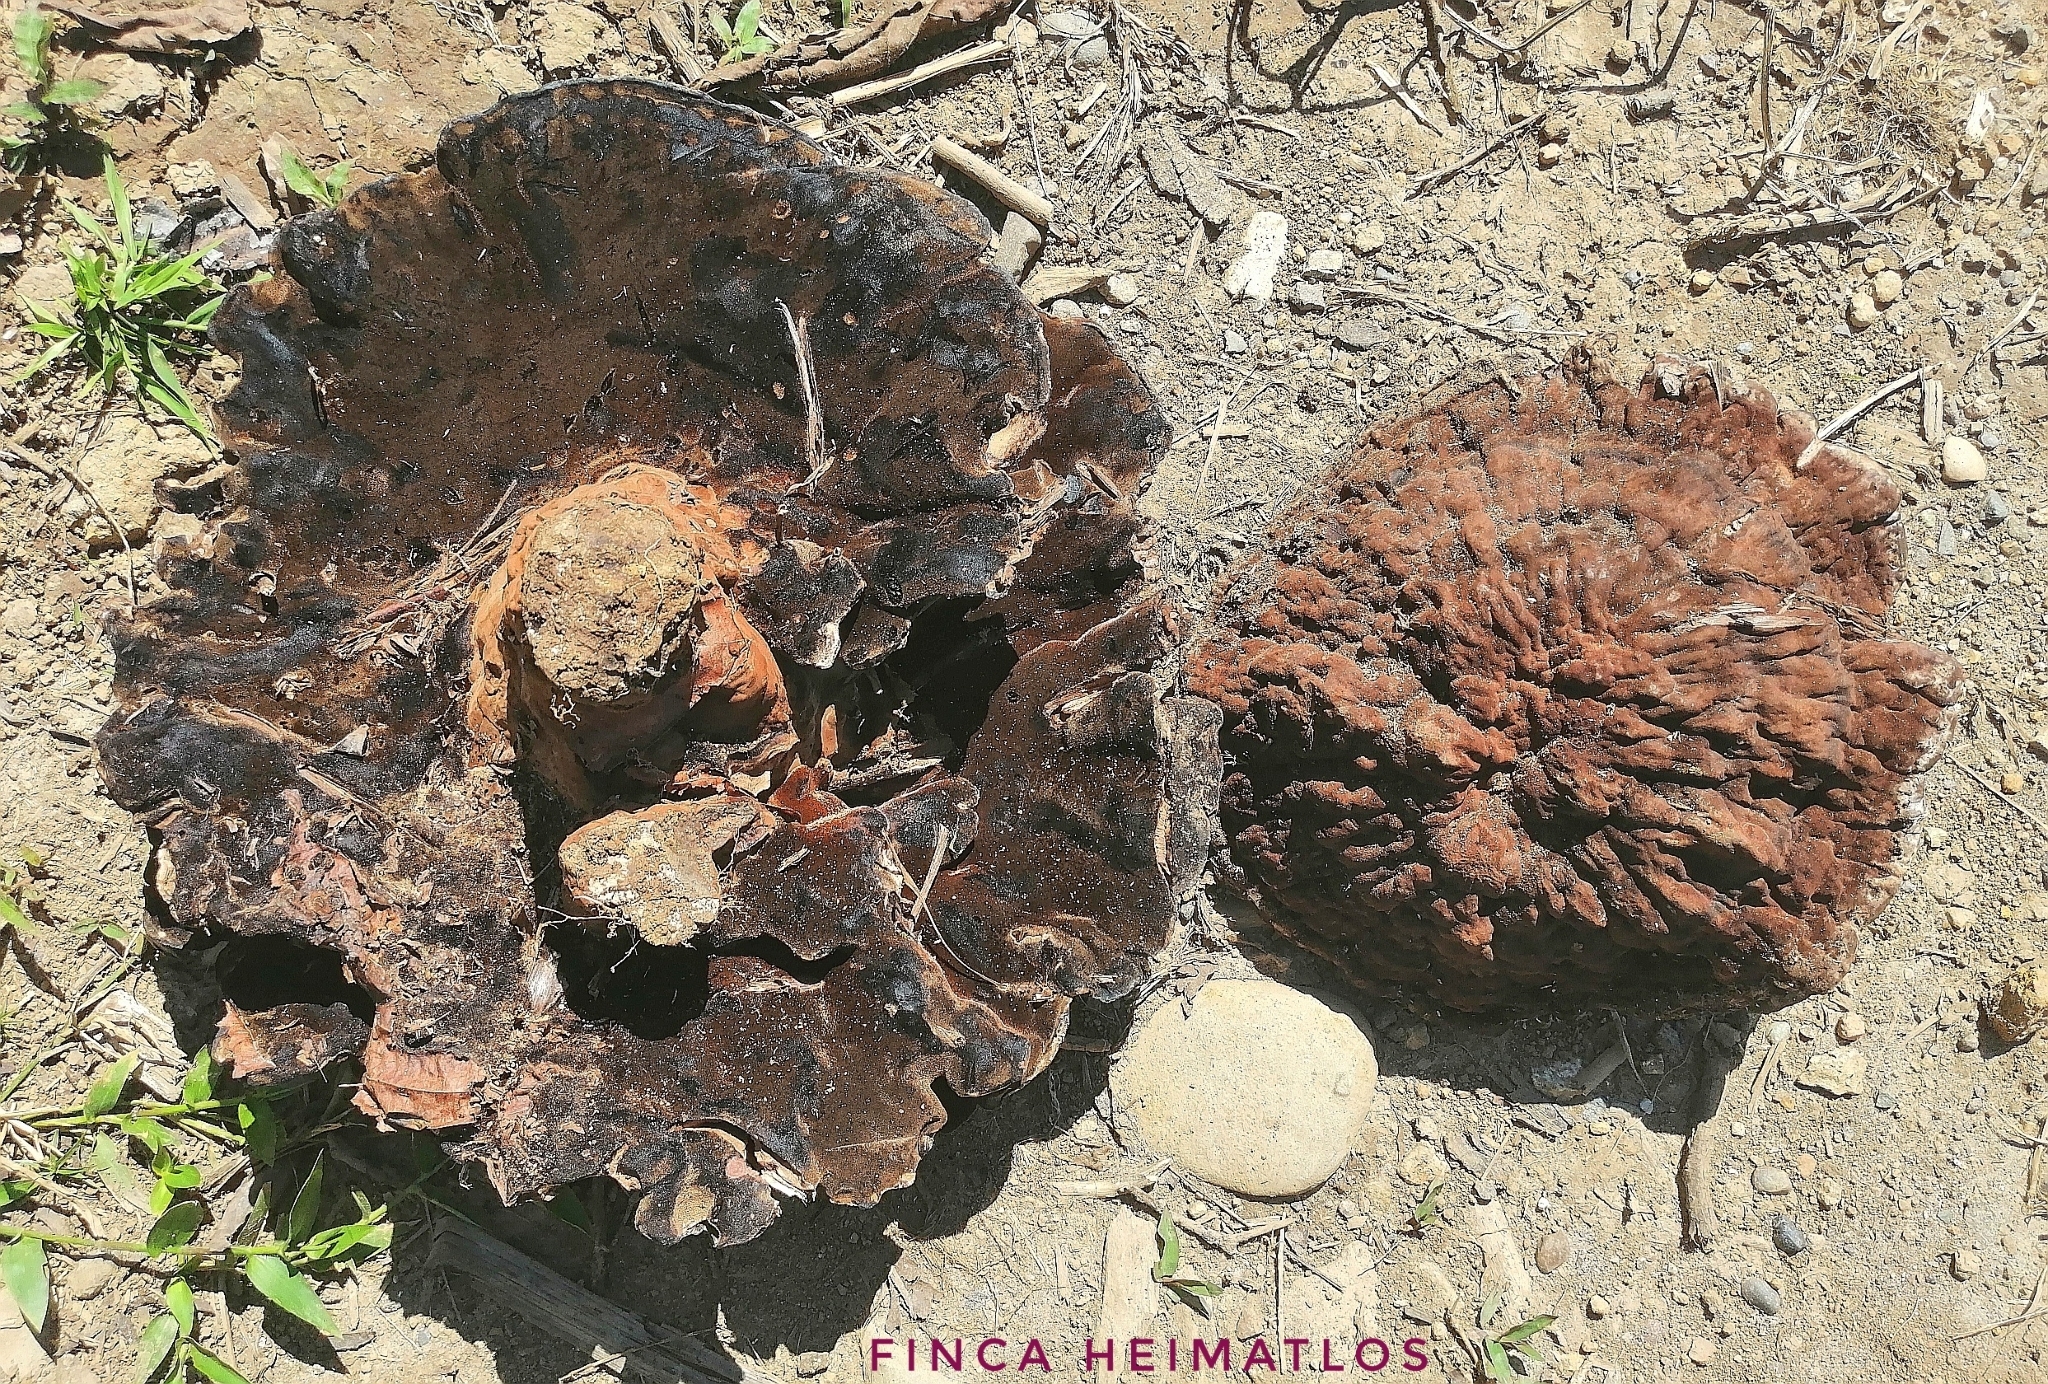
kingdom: Fungi
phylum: Basidiomycota
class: Agaricomycetes
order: Polyporales
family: Laetiporaceae
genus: Kusaghiporia
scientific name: Kusaghiporia talpae
